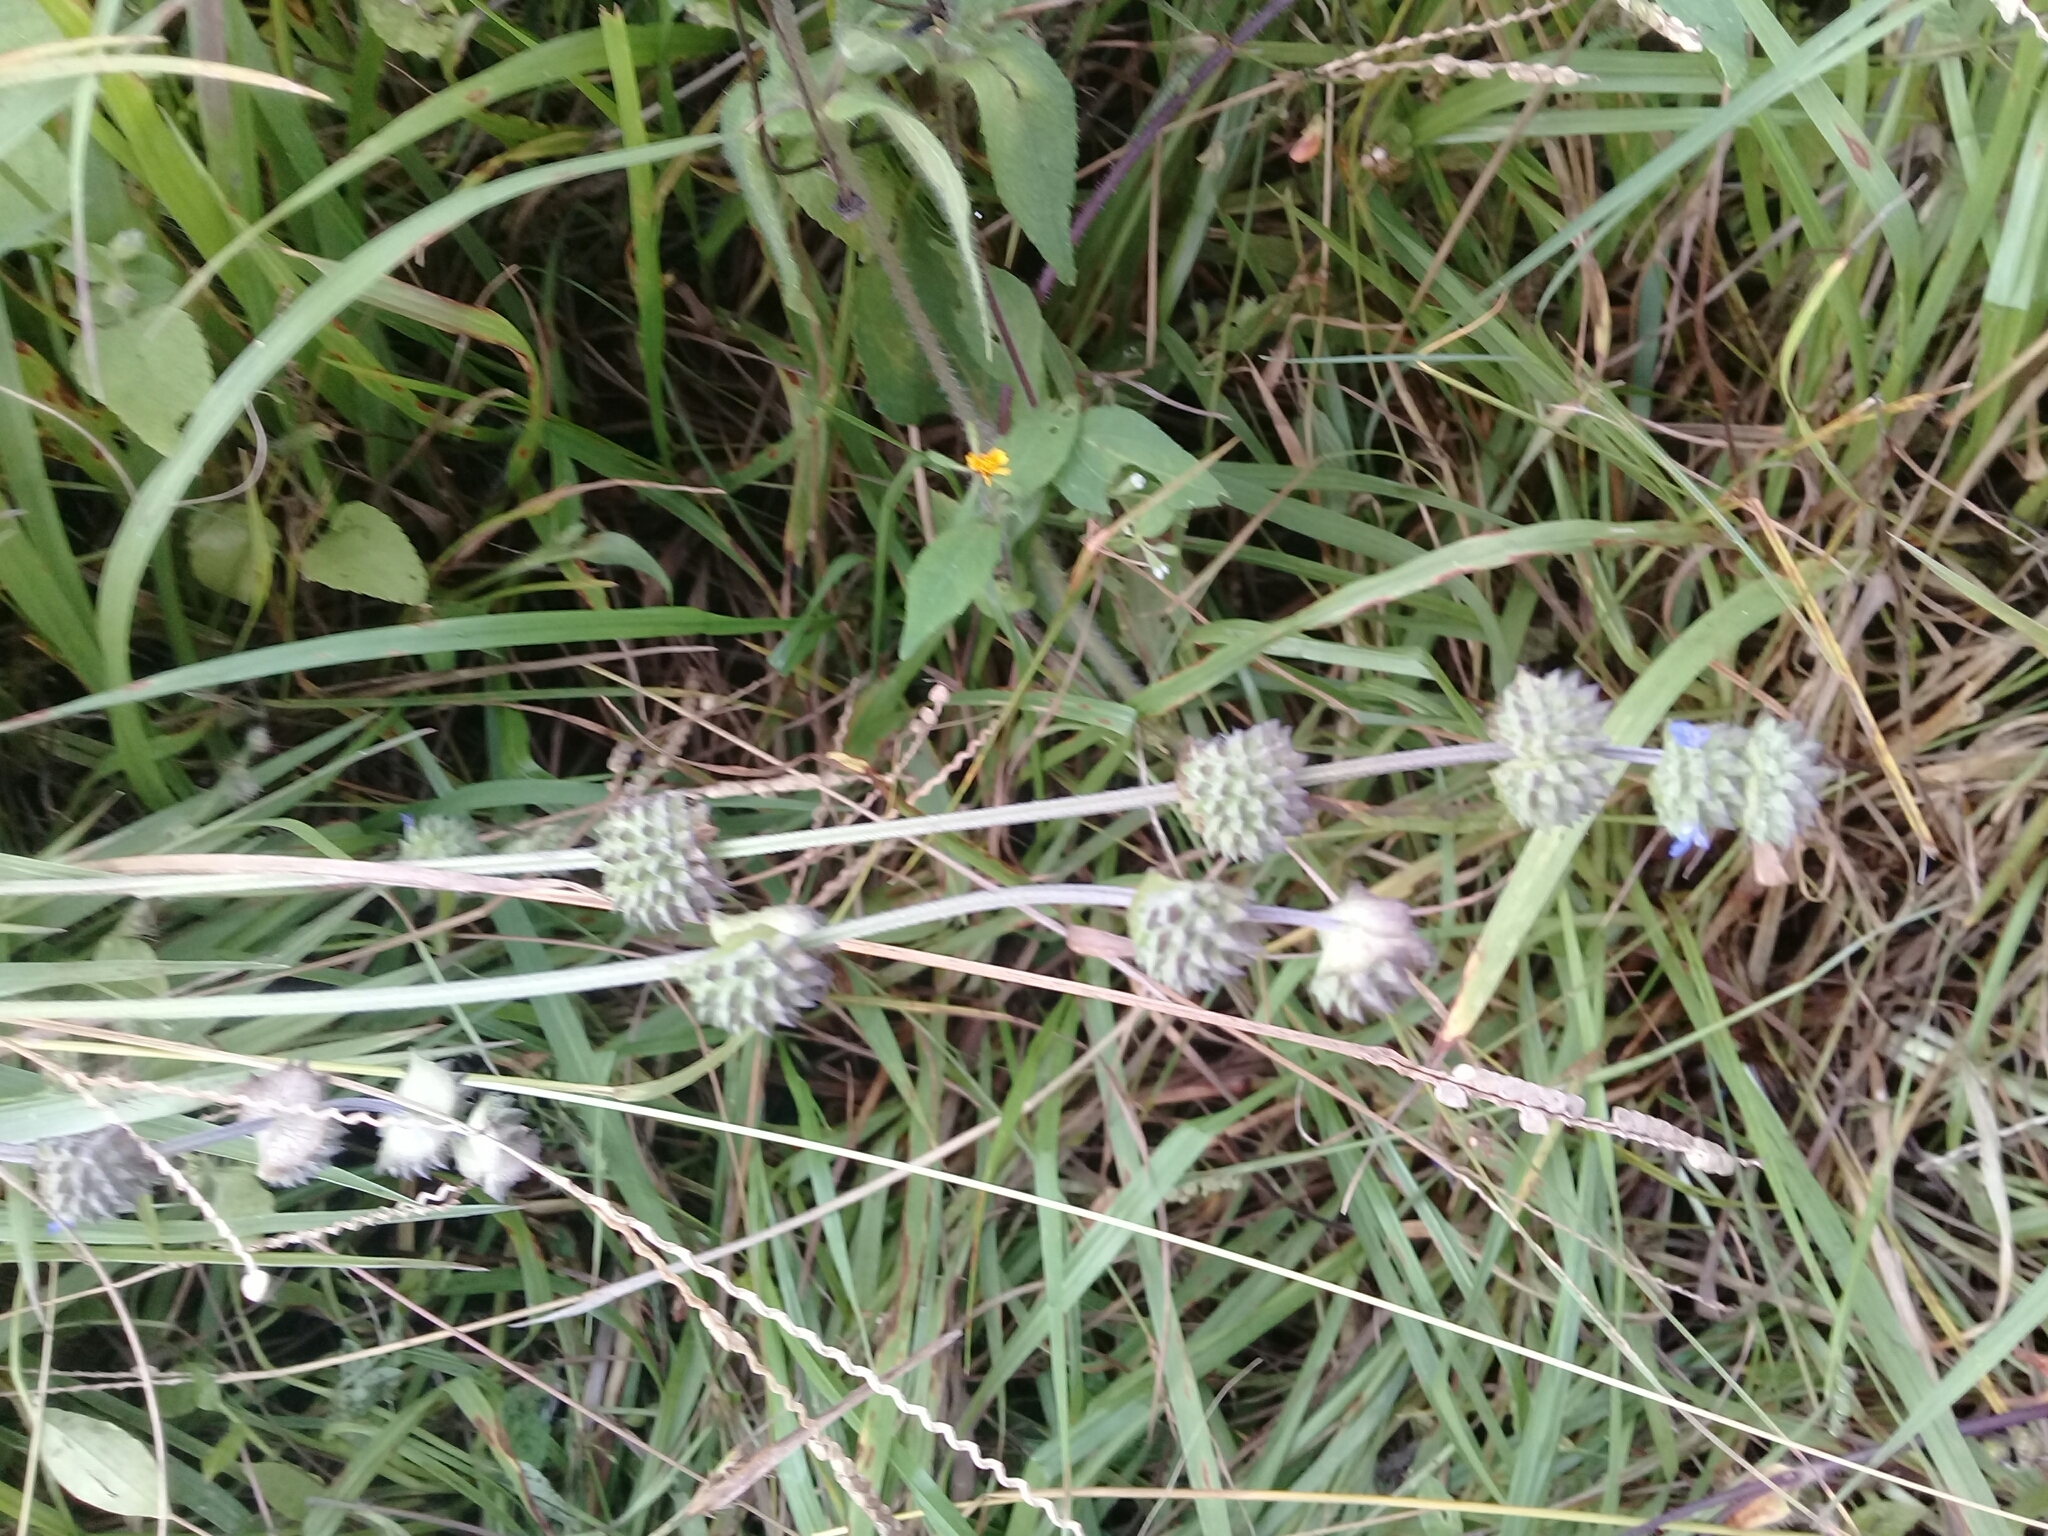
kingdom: Plantae
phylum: Tracheophyta
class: Magnoliopsida
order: Lamiales
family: Lamiaceae
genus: Salvia
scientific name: Salvia lasiocephala
